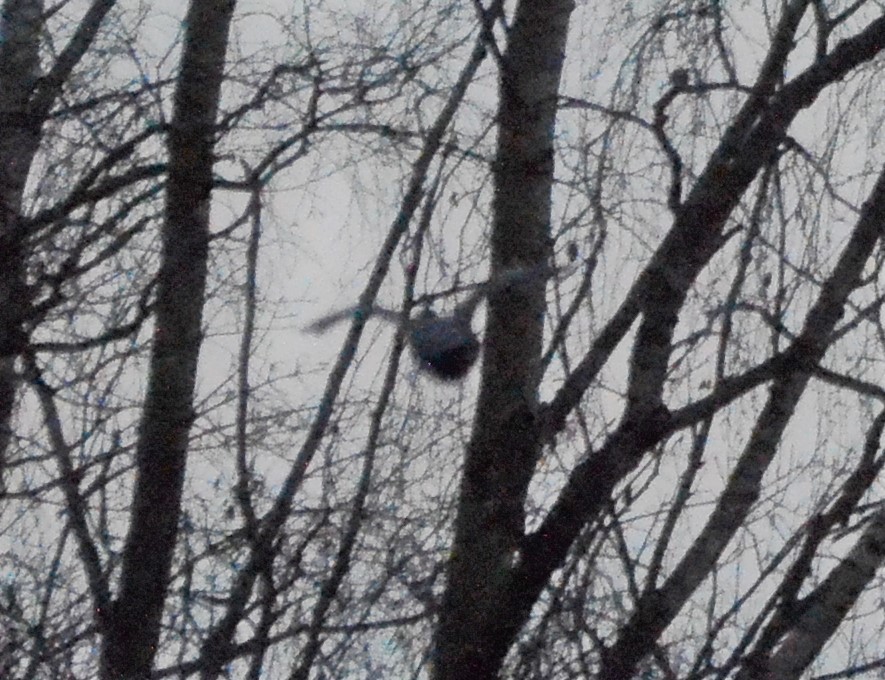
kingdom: Animalia
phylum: Chordata
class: Aves
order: Columbiformes
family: Columbidae
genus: Columba
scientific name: Columba palumbus
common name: Common wood pigeon
